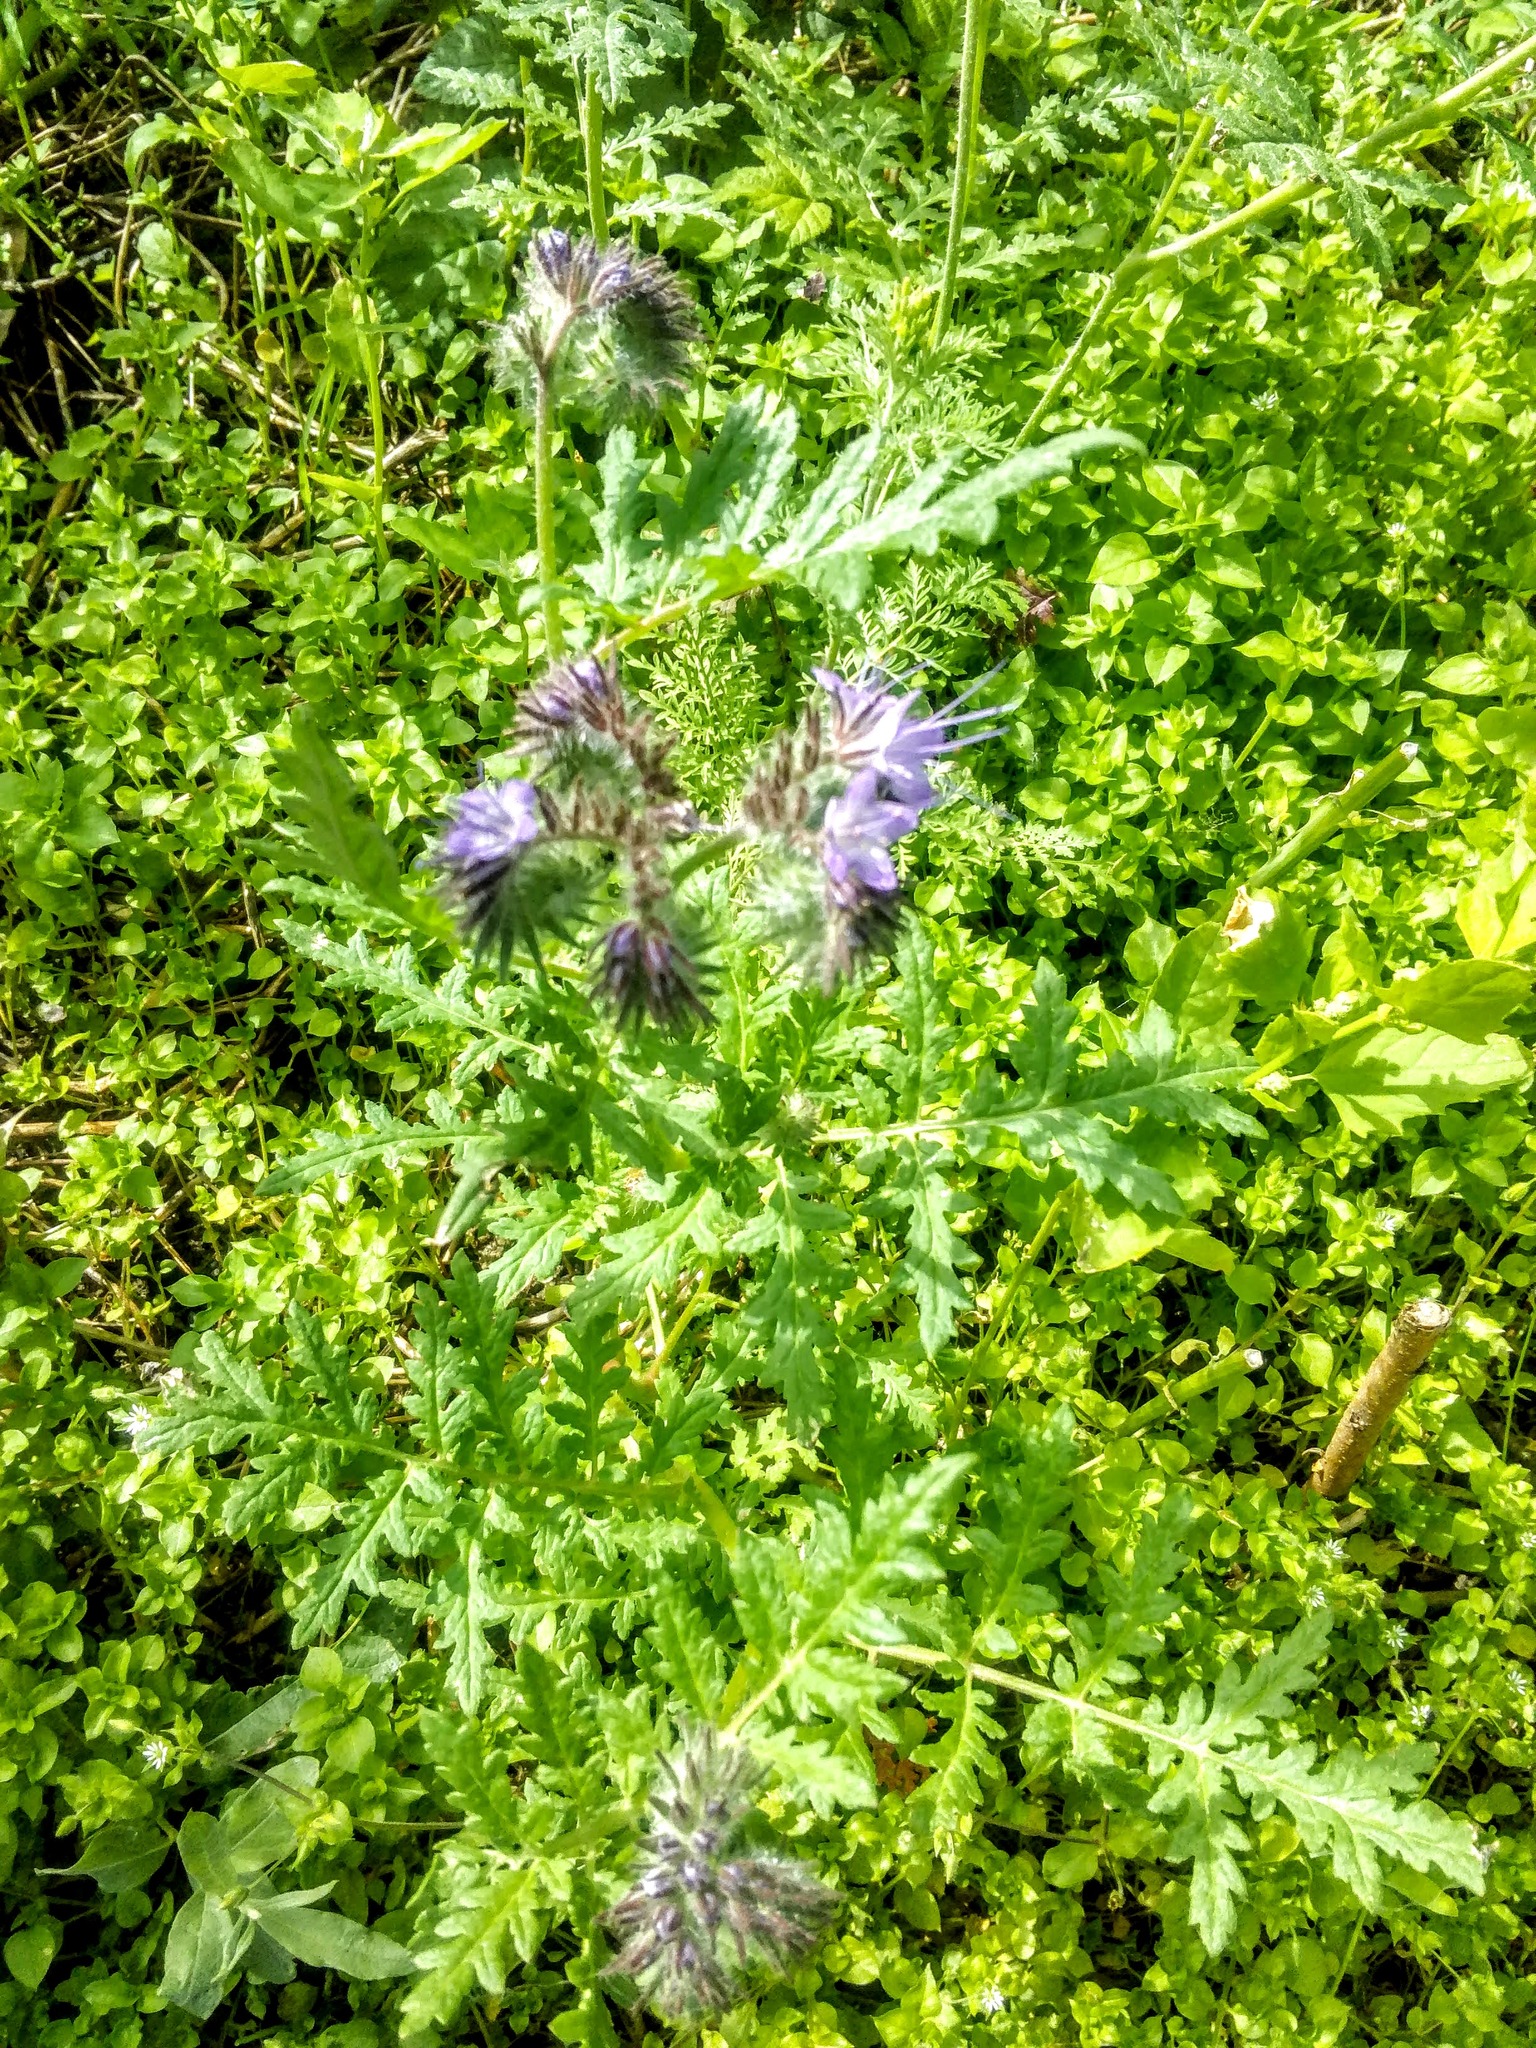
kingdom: Plantae
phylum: Tracheophyta
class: Magnoliopsida
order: Boraginales
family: Hydrophyllaceae
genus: Phacelia
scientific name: Phacelia tanacetifolia
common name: Phacelia
